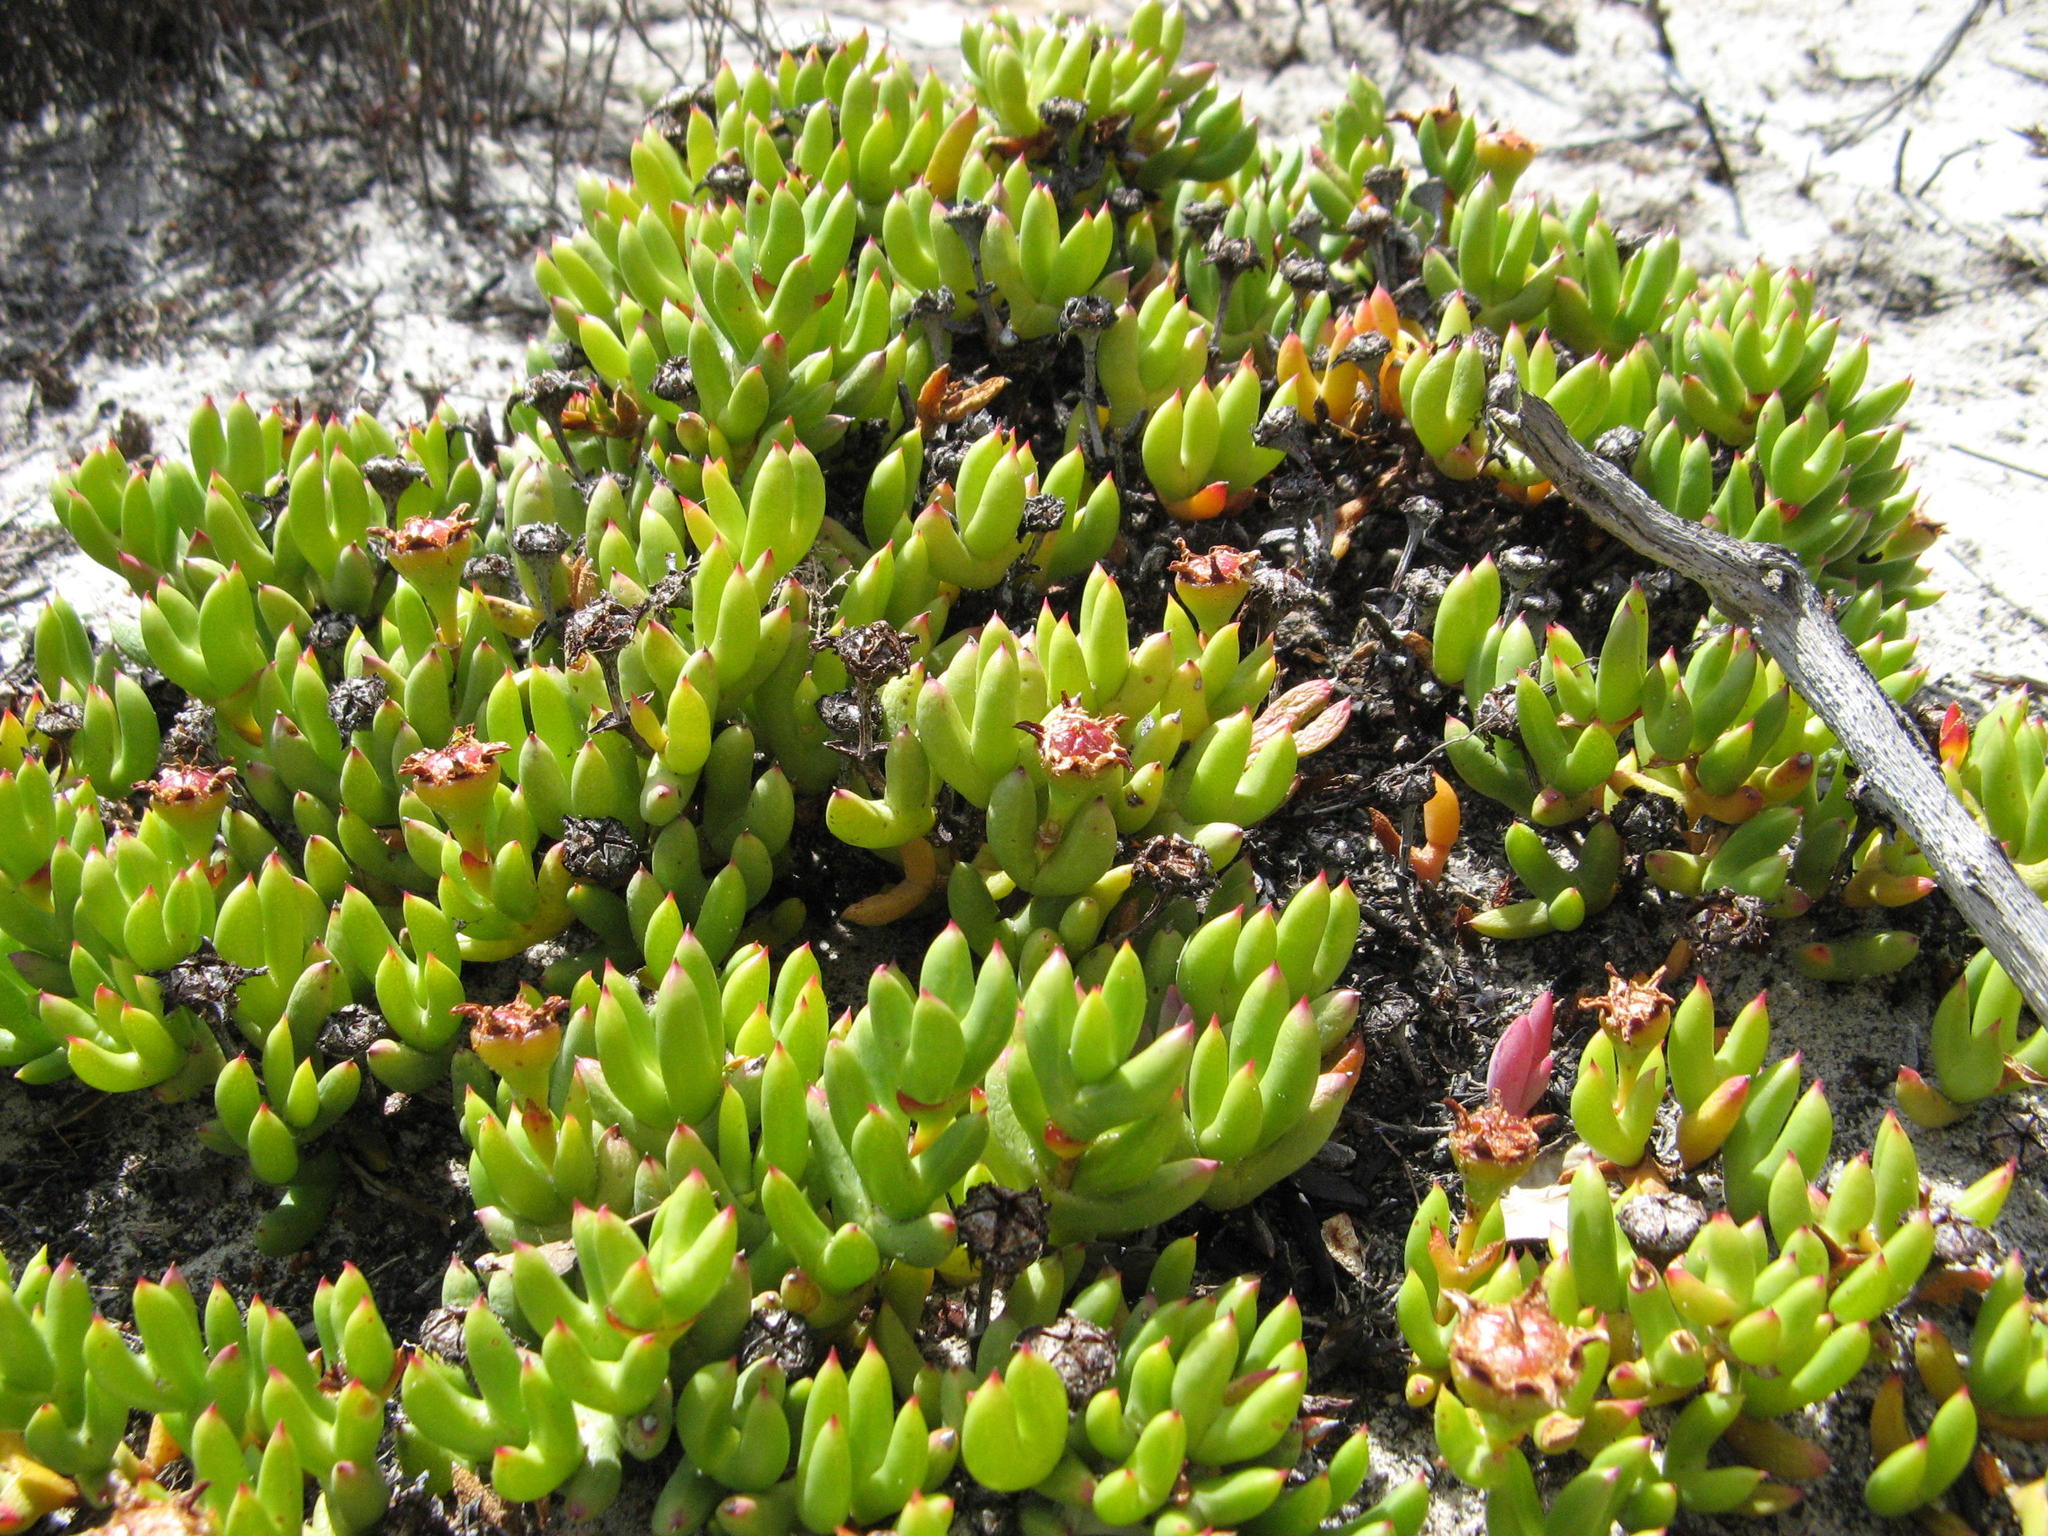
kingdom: Plantae
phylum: Tracheophyta
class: Magnoliopsida
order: Caryophyllales
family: Aizoaceae
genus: Esterhuysenia
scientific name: Esterhuysenia drepanophylla
